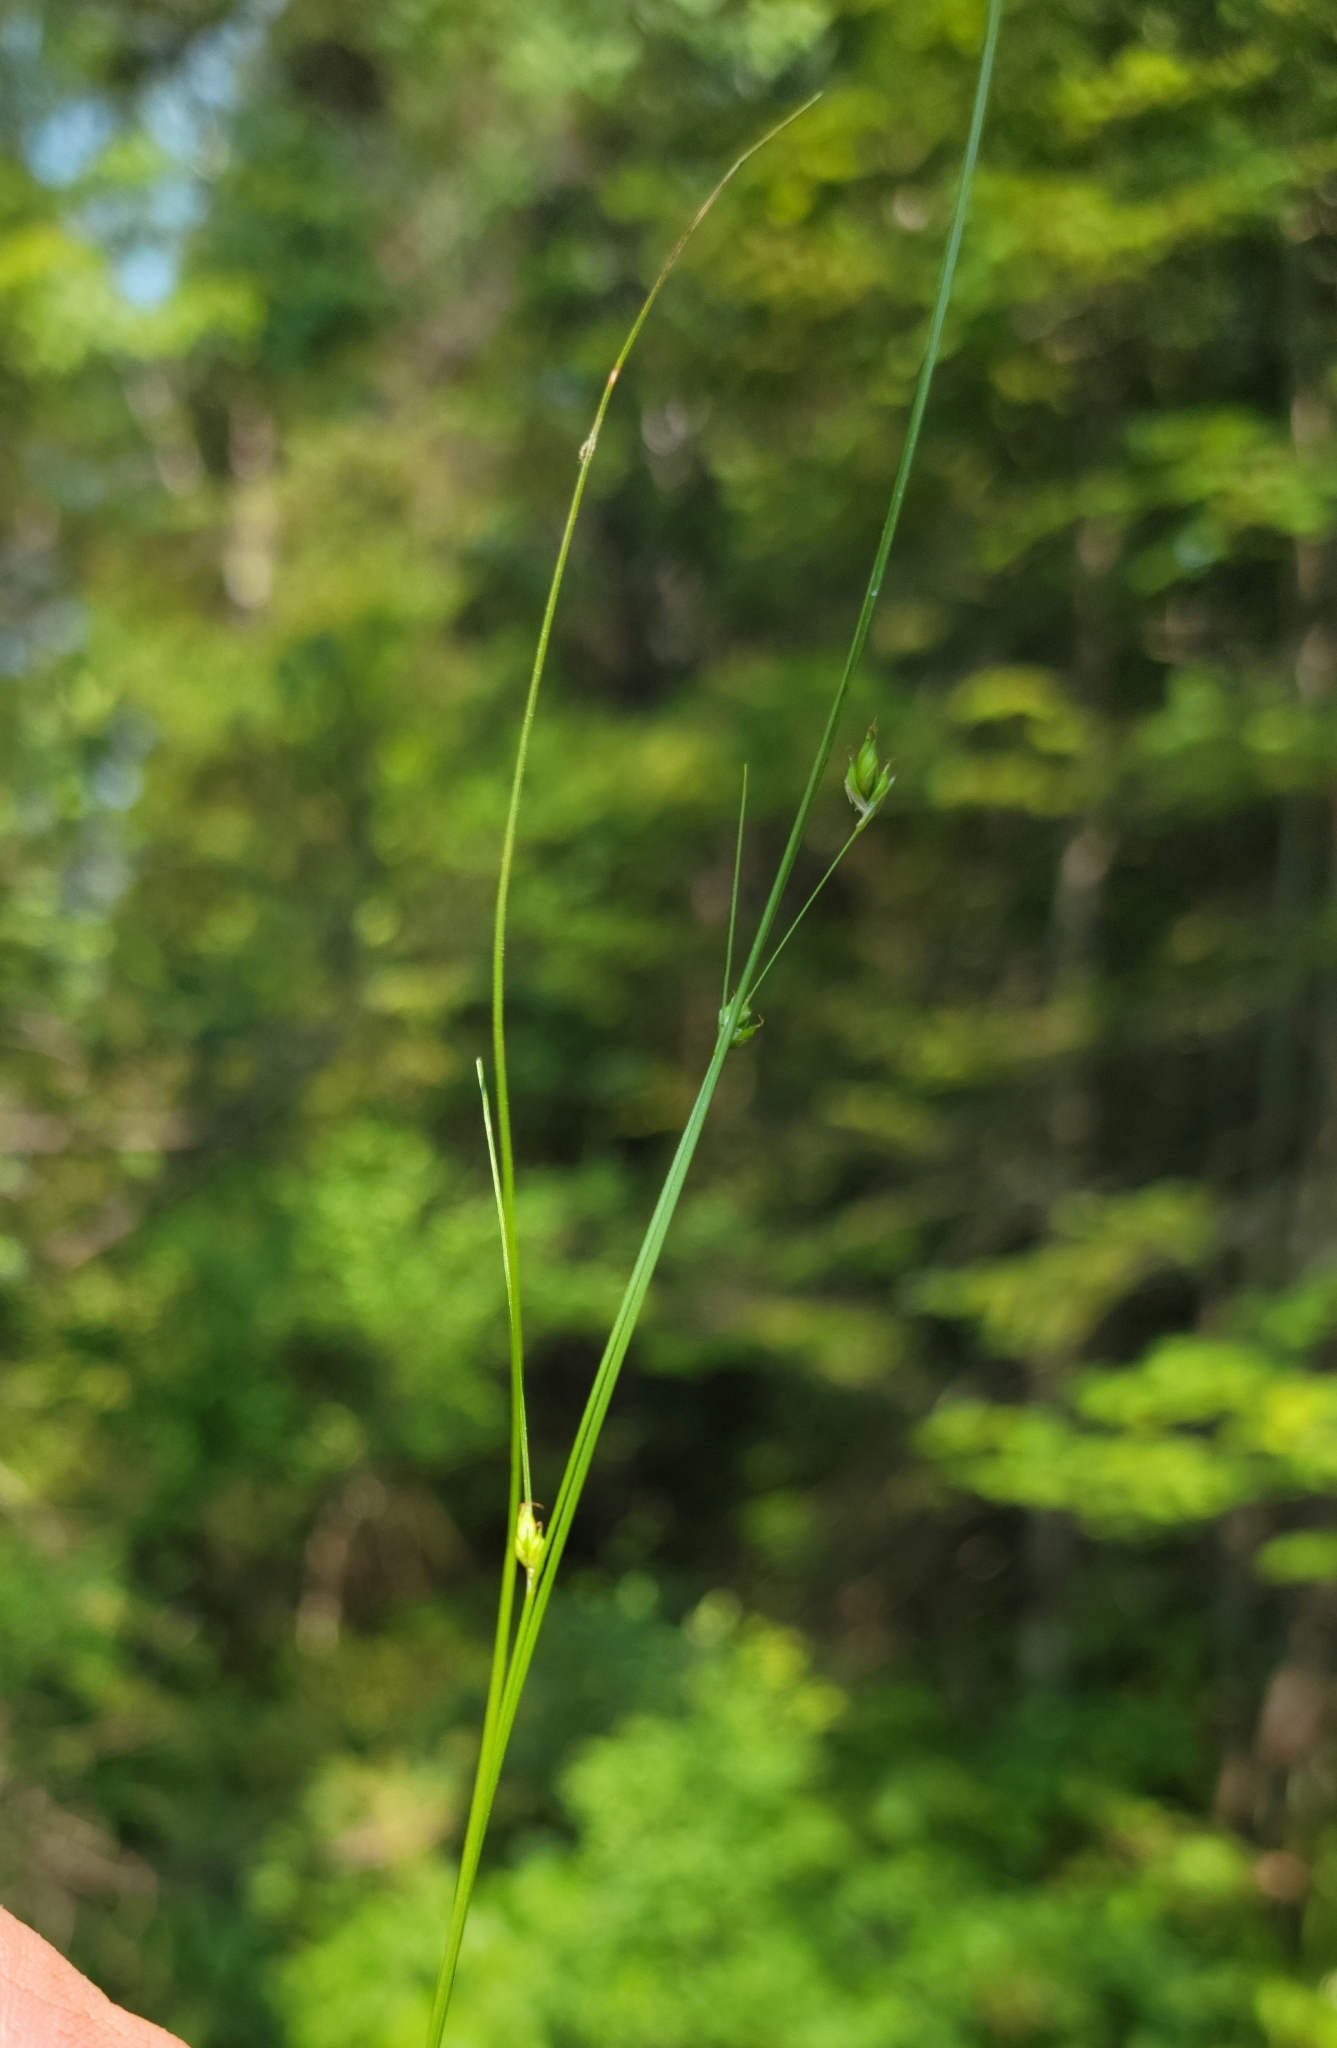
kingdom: Plantae
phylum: Tracheophyta
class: Liliopsida
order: Poales
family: Cyperaceae
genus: Carex
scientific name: Carex trisperma
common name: Three-seeded sedge
